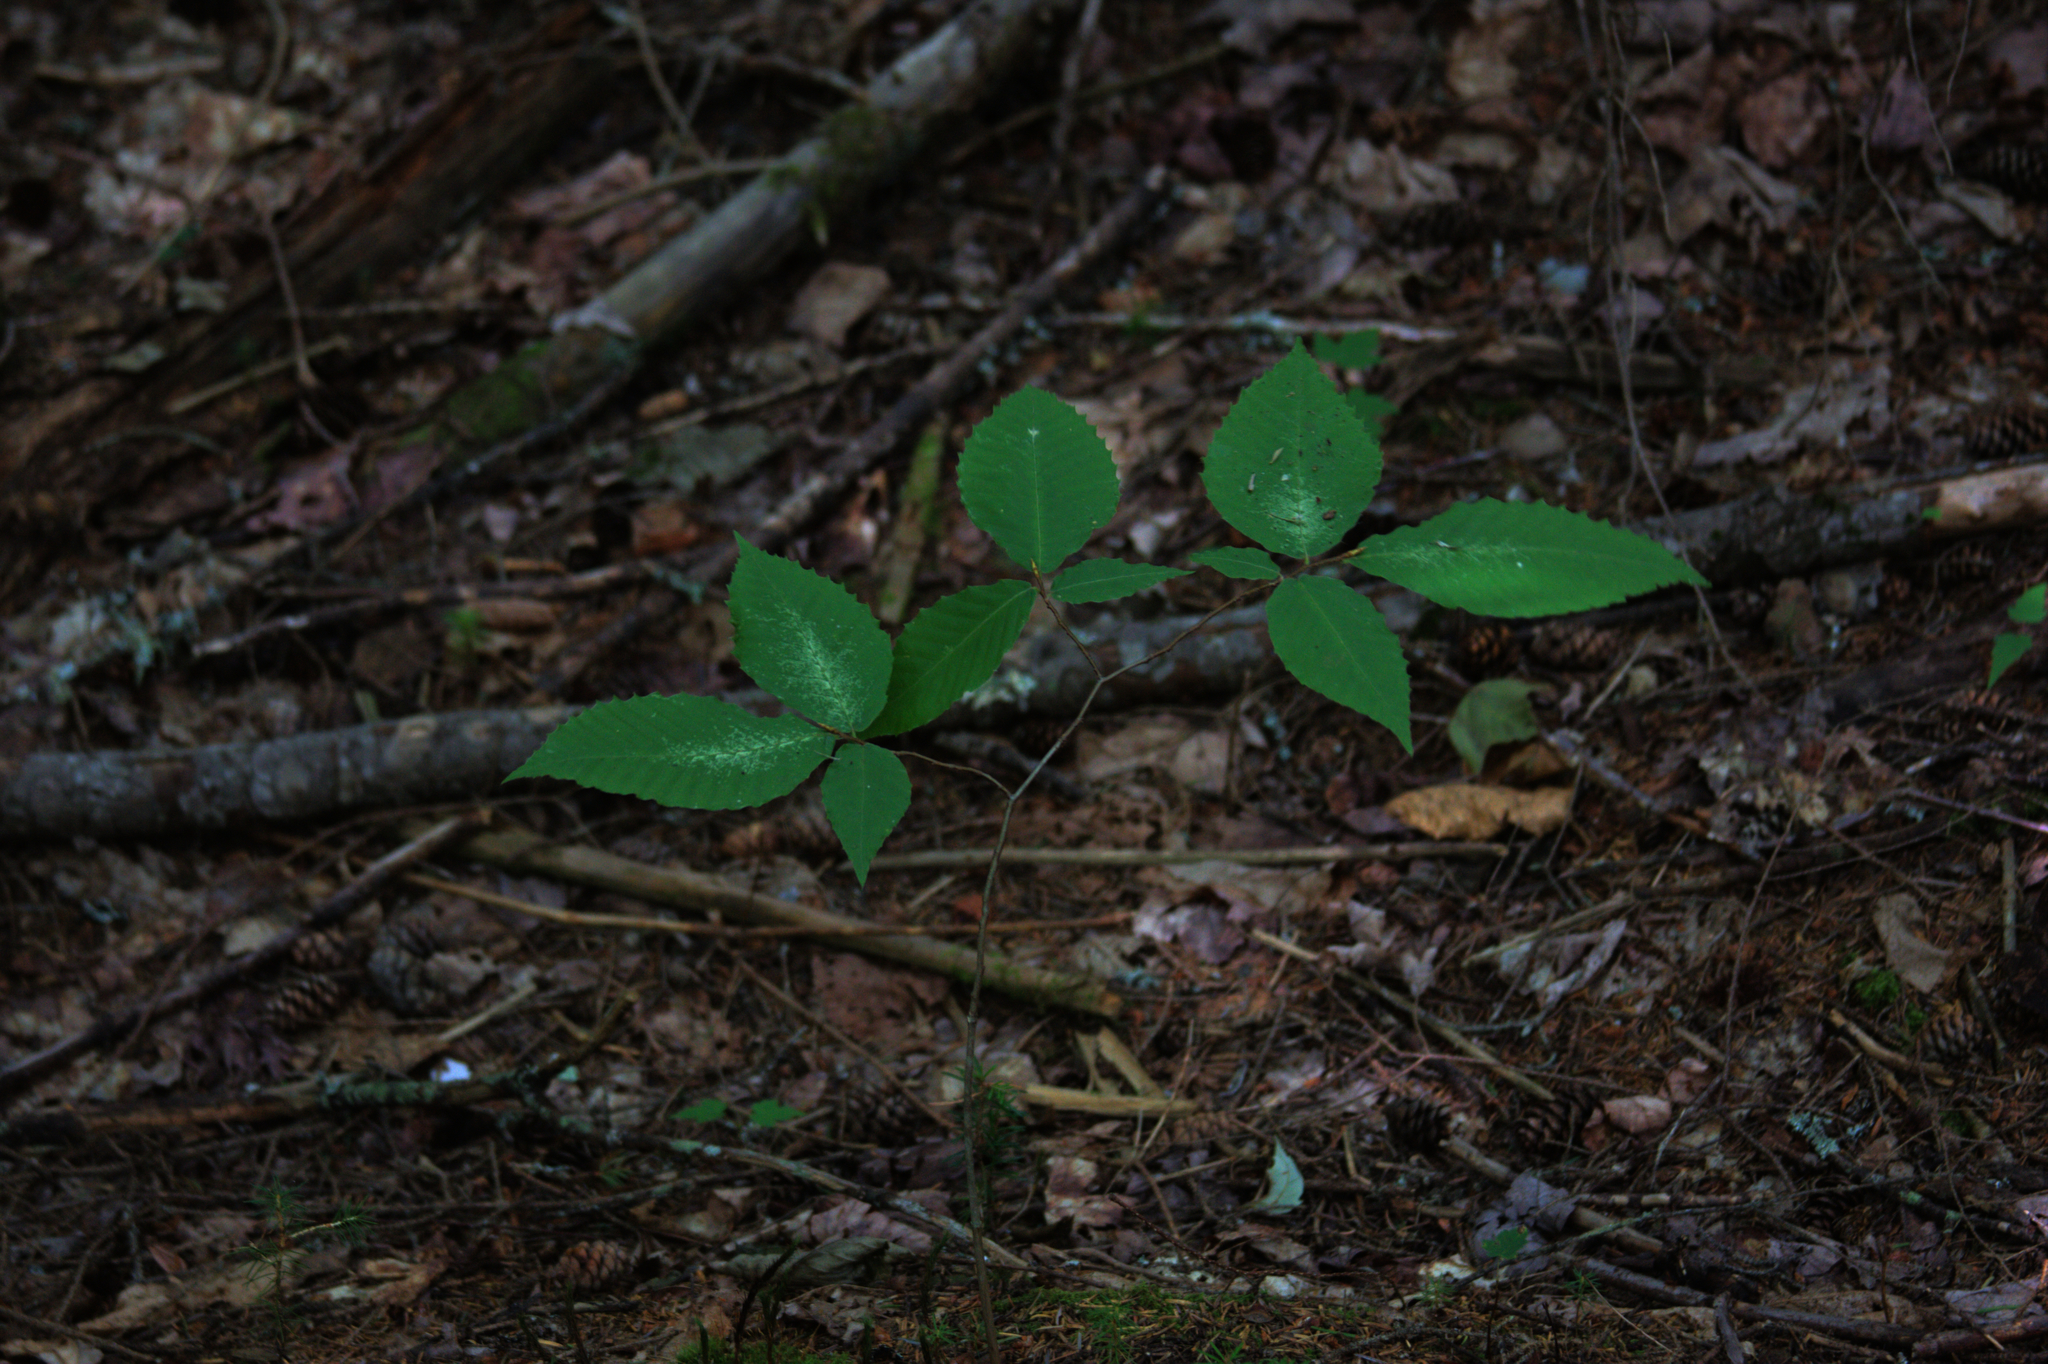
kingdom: Plantae
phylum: Tracheophyta
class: Magnoliopsida
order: Fagales
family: Fagaceae
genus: Fagus
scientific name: Fagus grandifolia
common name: American beech
